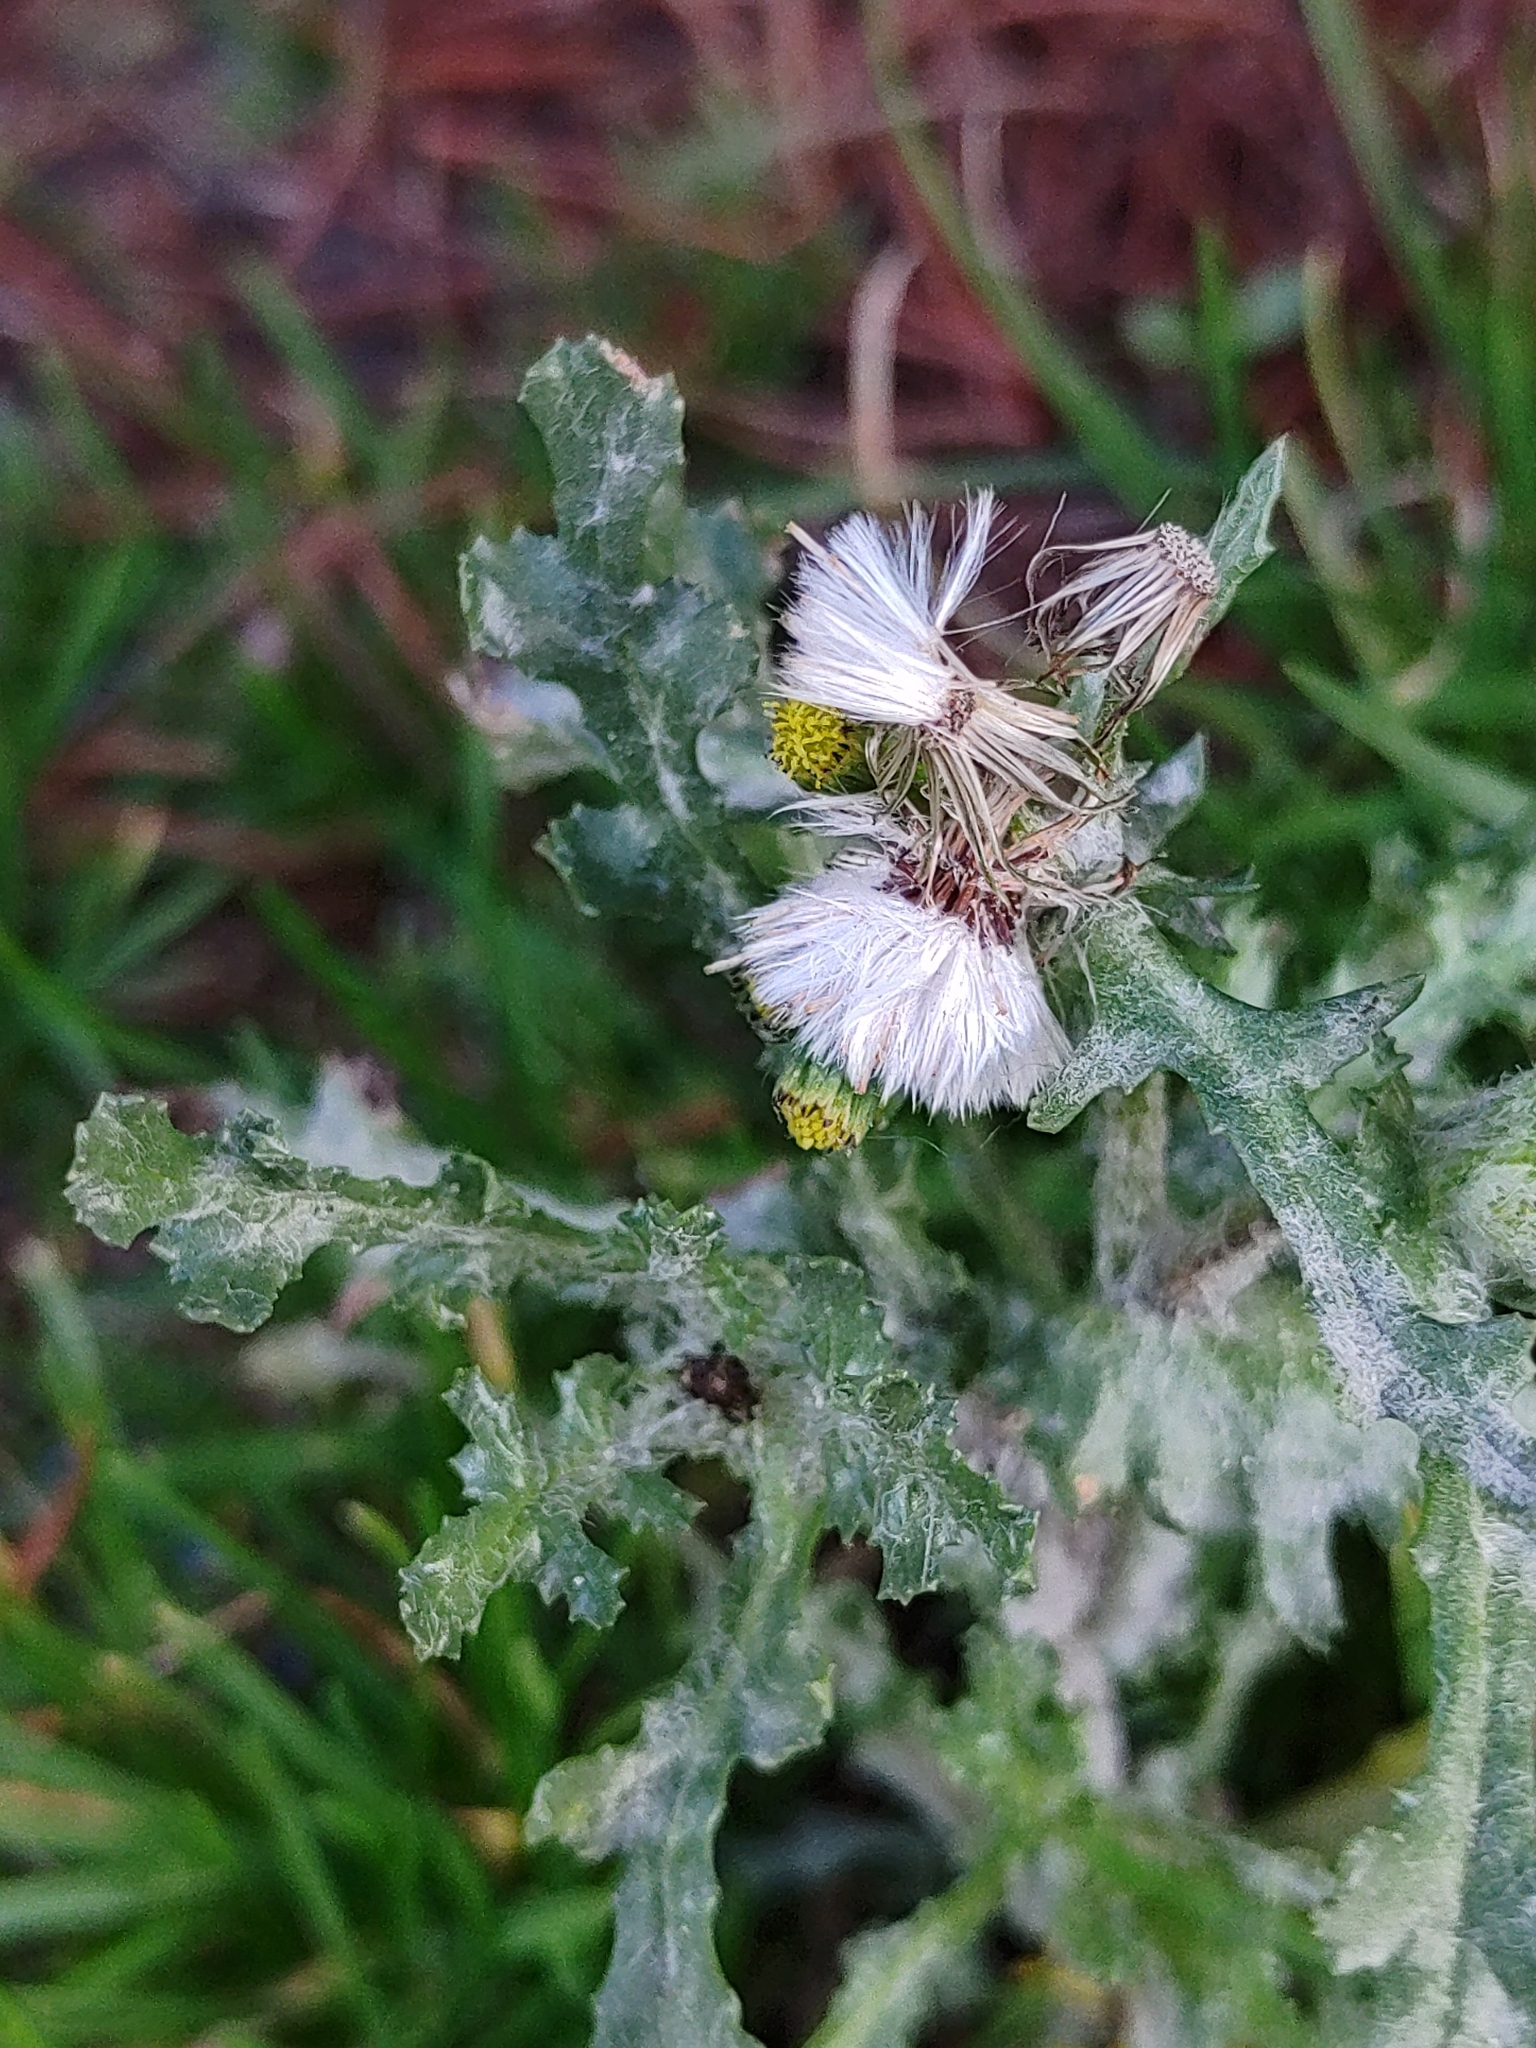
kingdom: Plantae
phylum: Tracheophyta
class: Magnoliopsida
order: Asterales
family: Asteraceae
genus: Senecio
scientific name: Senecio vulgaris
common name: Old-man-in-the-spring
